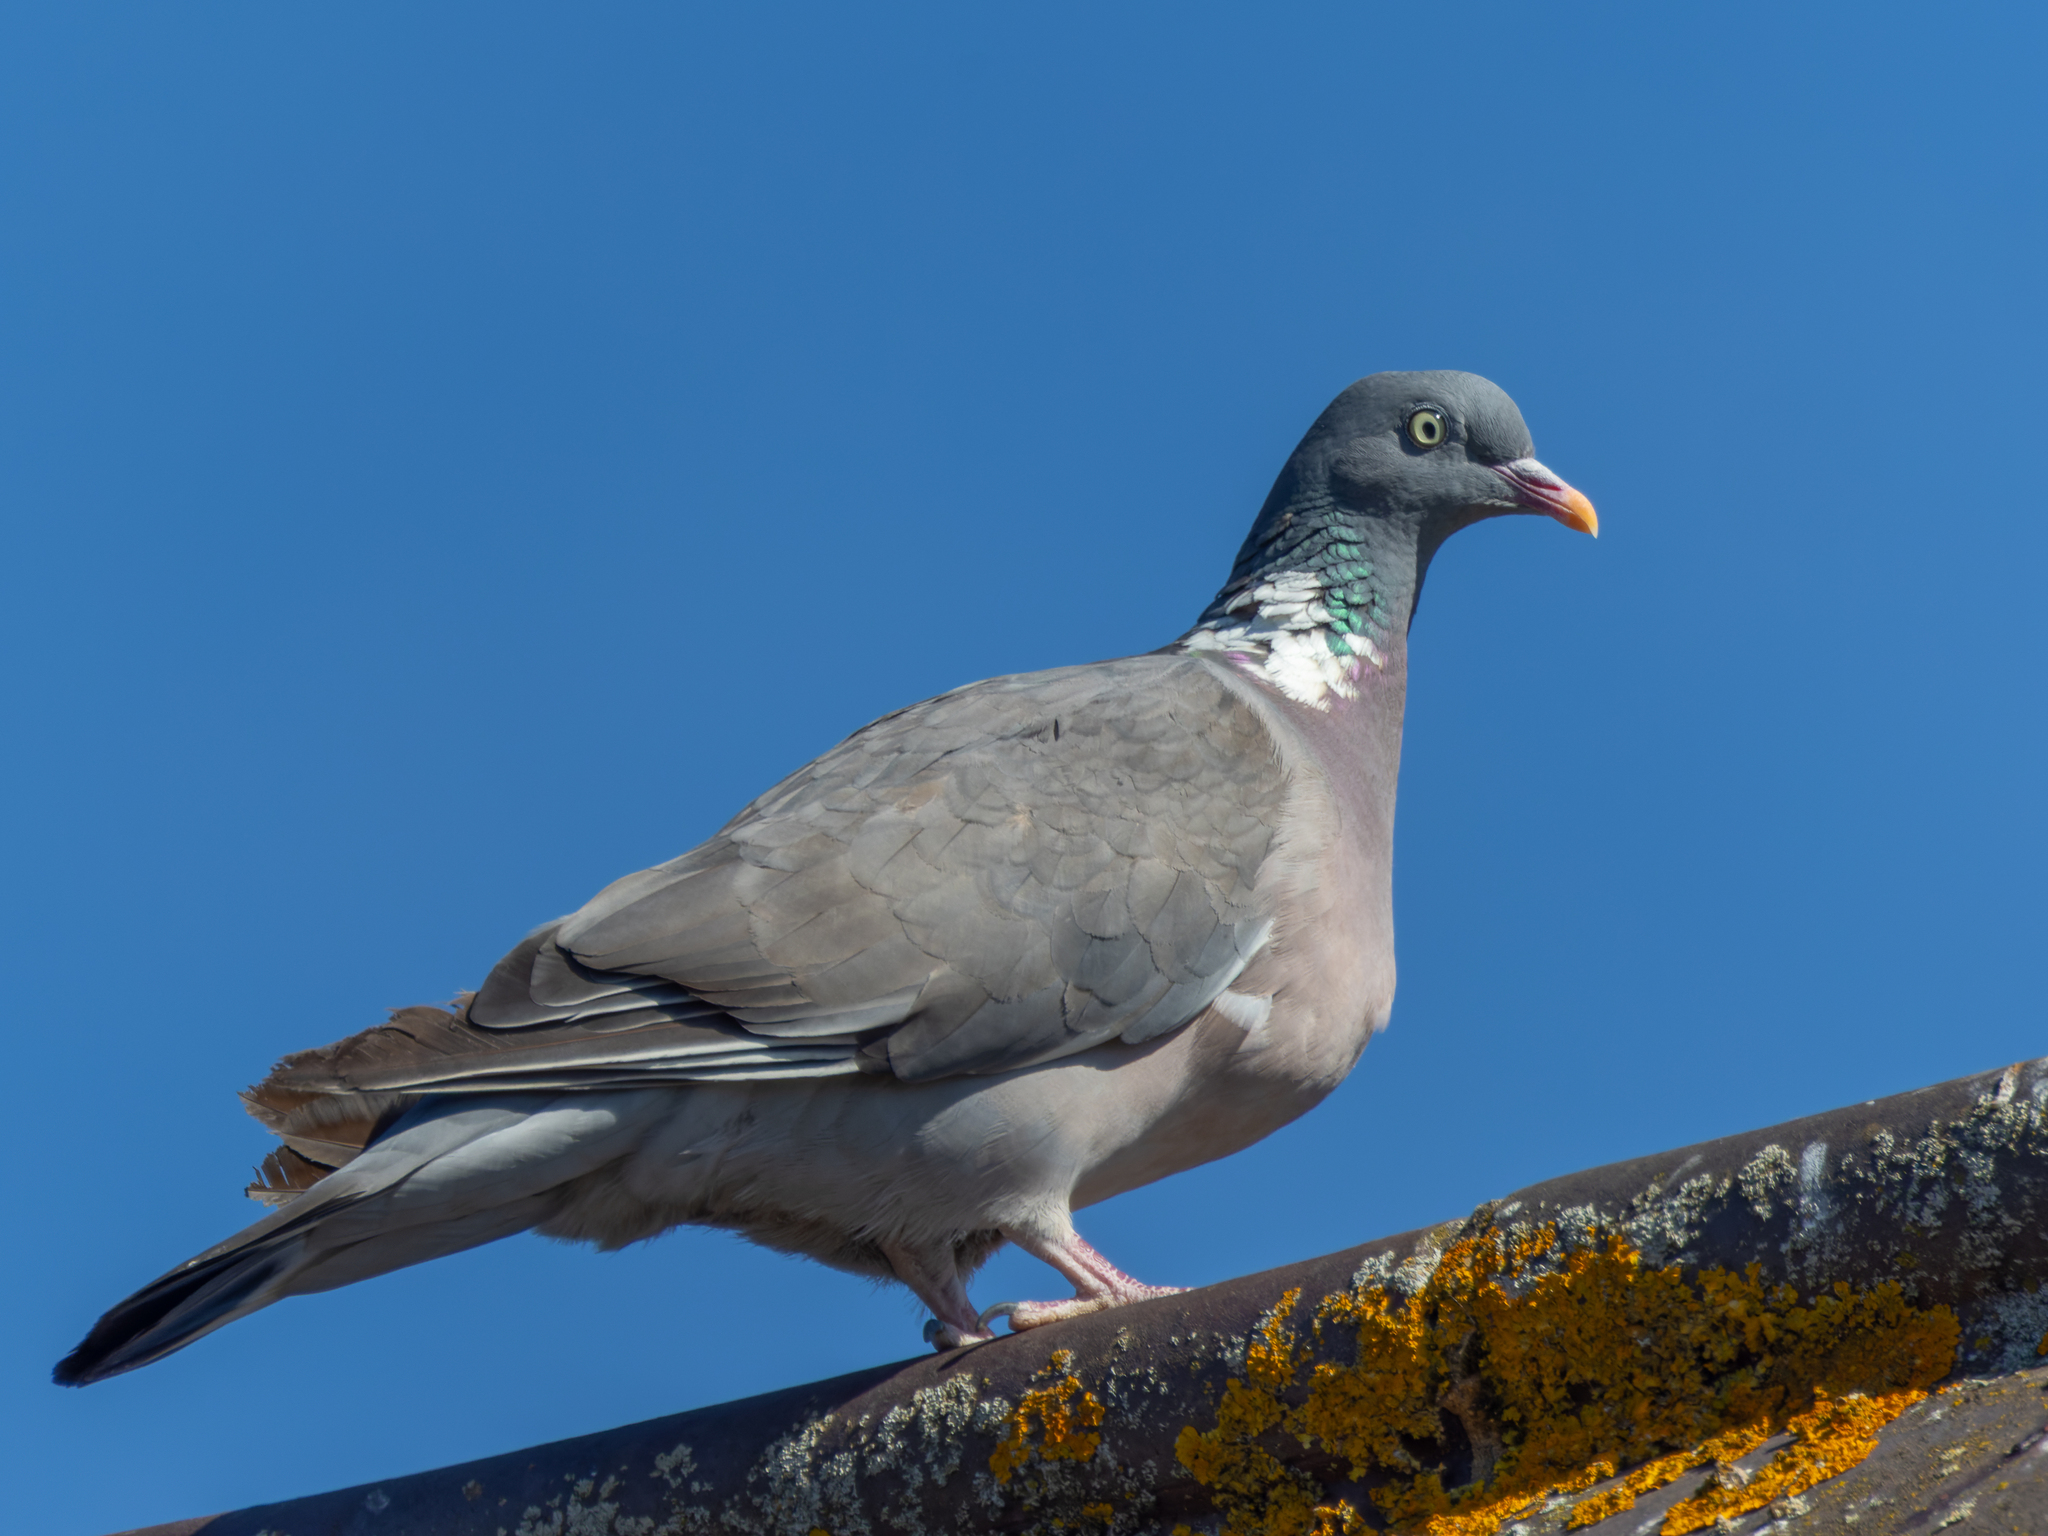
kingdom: Animalia
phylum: Chordata
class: Aves
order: Columbiformes
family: Columbidae
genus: Columba
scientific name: Columba palumbus
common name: Common wood pigeon
